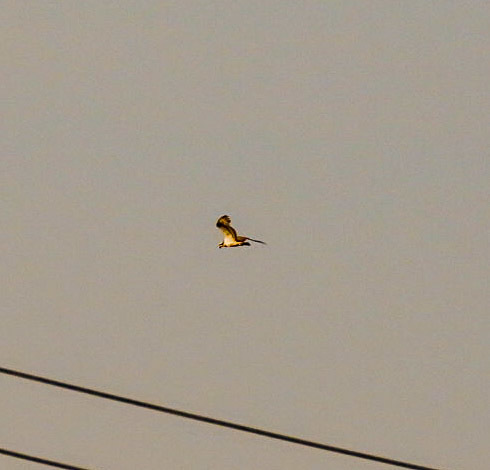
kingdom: Animalia
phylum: Chordata
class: Aves
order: Accipitriformes
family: Pandionidae
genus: Pandion
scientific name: Pandion haliaetus
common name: Osprey
